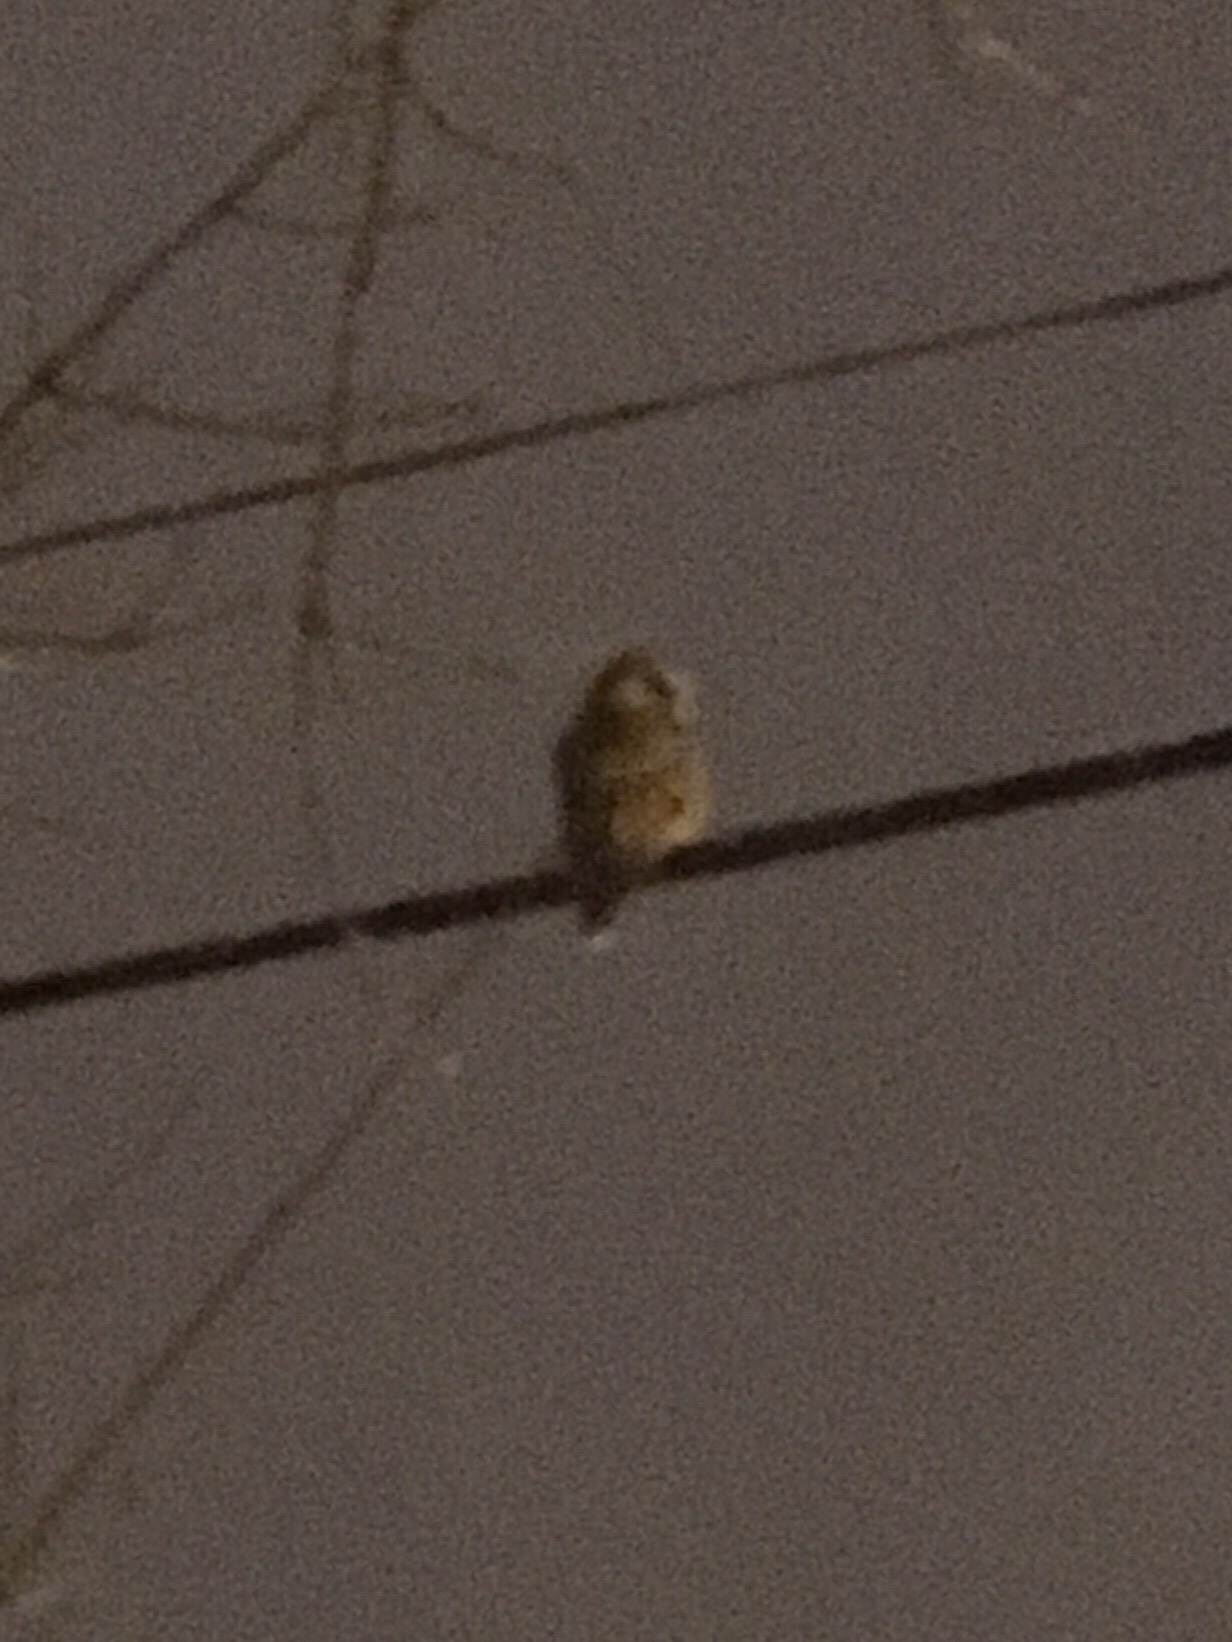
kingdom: Animalia
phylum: Chordata
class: Aves
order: Strigiformes
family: Strigidae
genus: Strix
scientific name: Strix varia
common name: Barred owl
